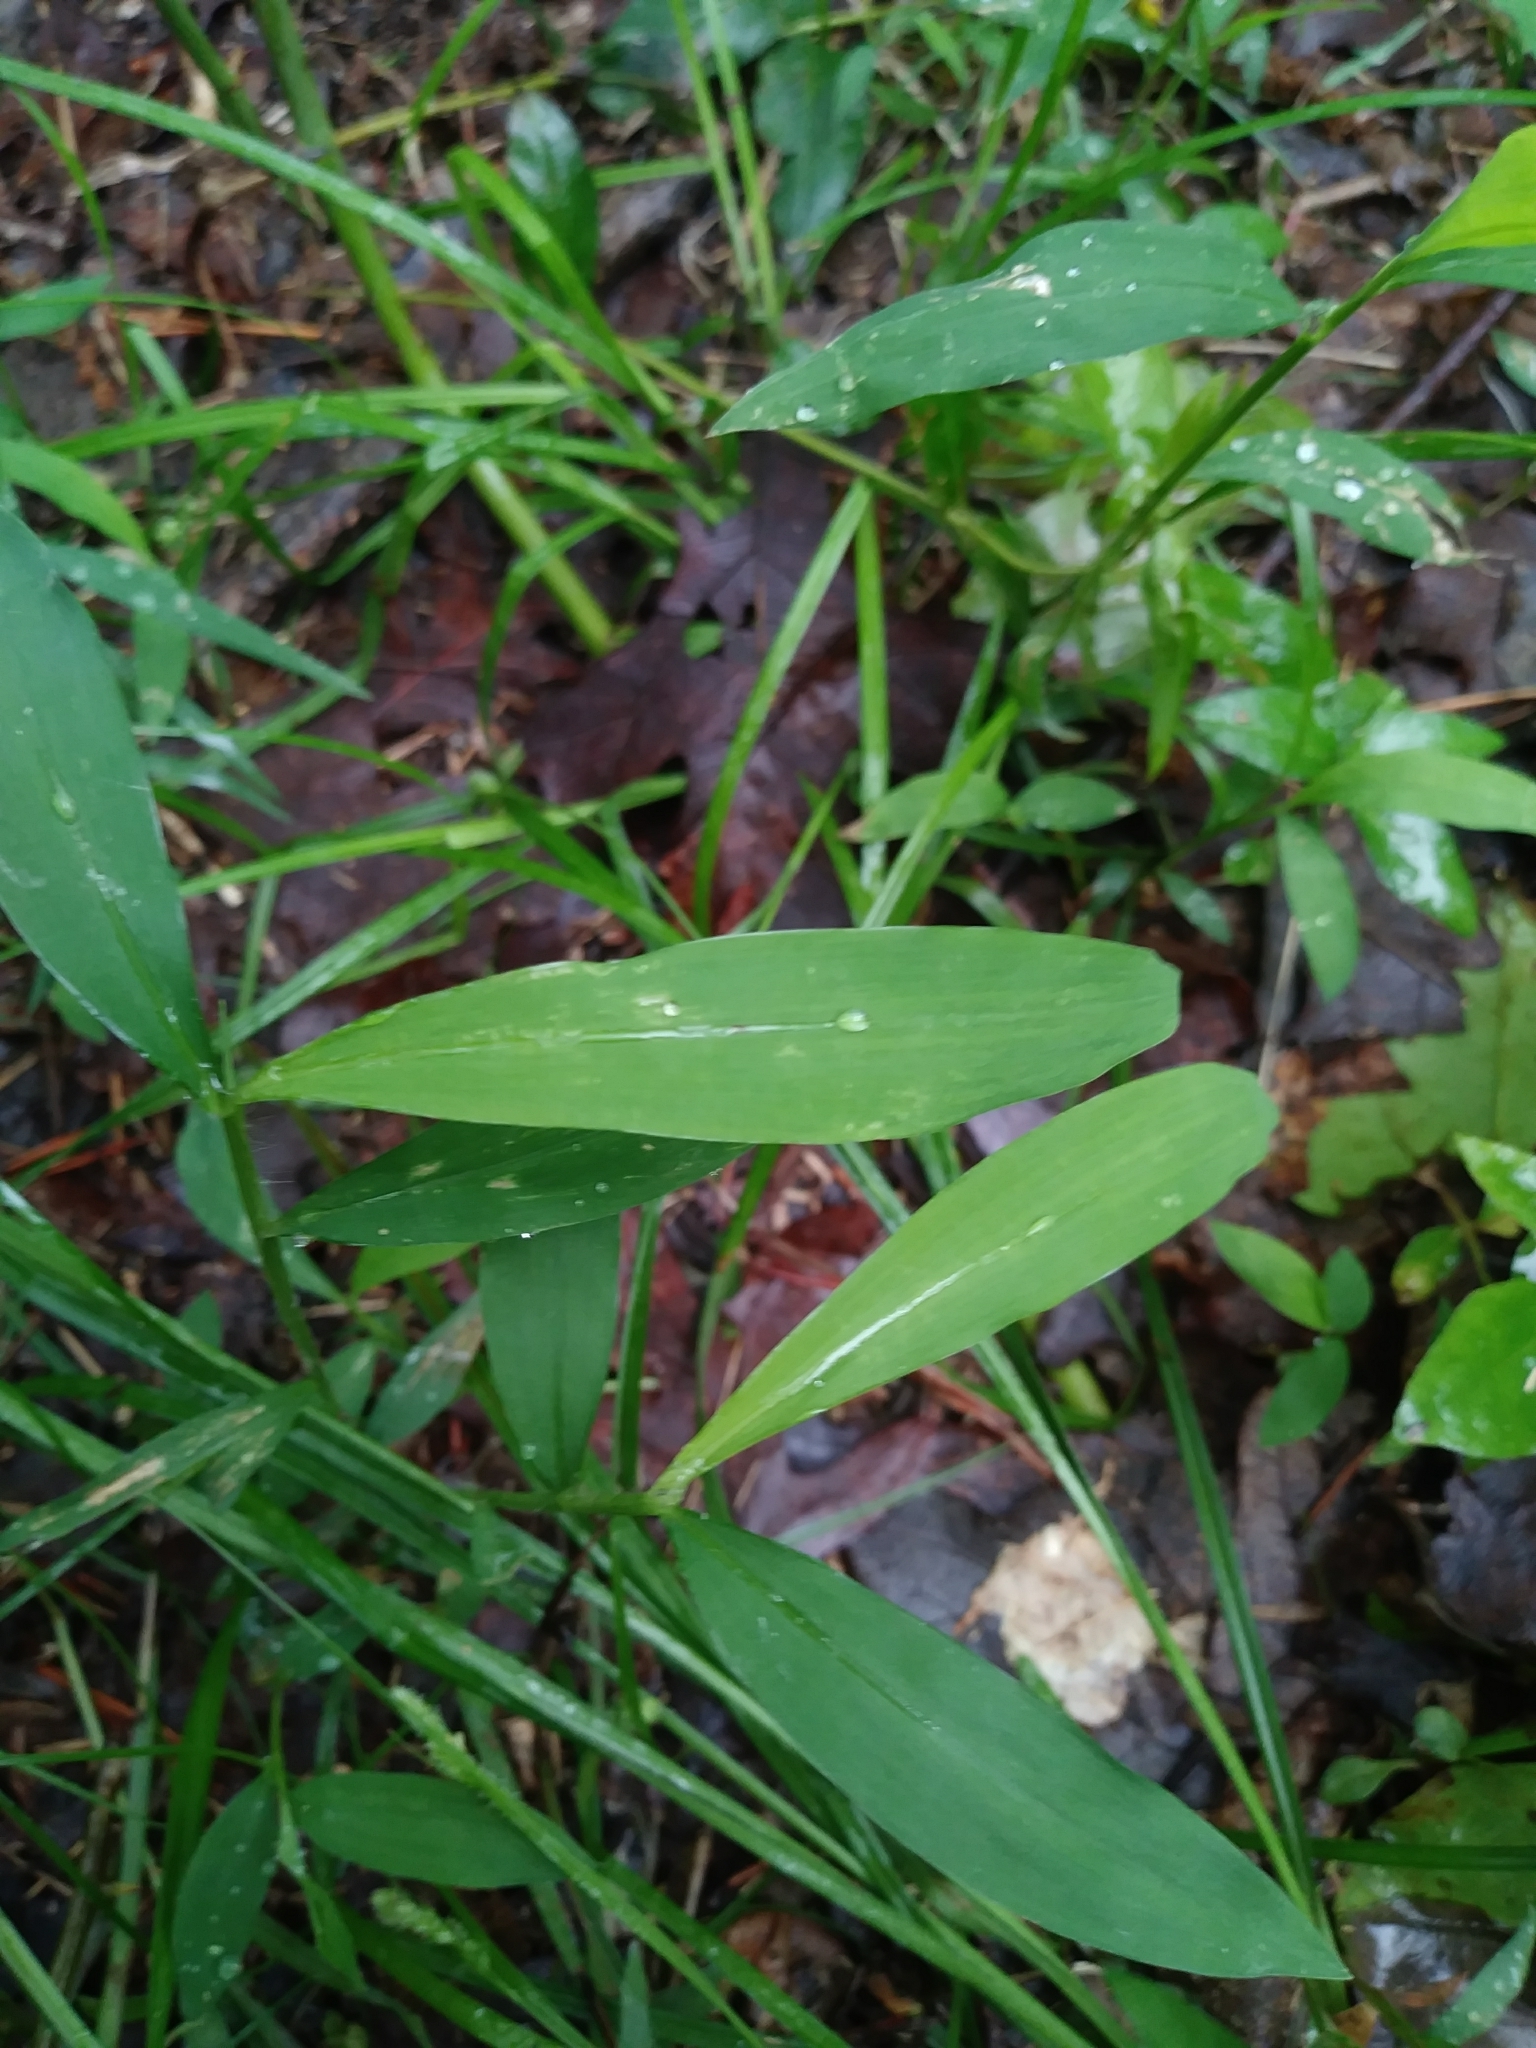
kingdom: Plantae
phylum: Tracheophyta
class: Liliopsida
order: Poales
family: Poaceae
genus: Microstegium
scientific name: Microstegium vimineum
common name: Japanese stiltgrass
